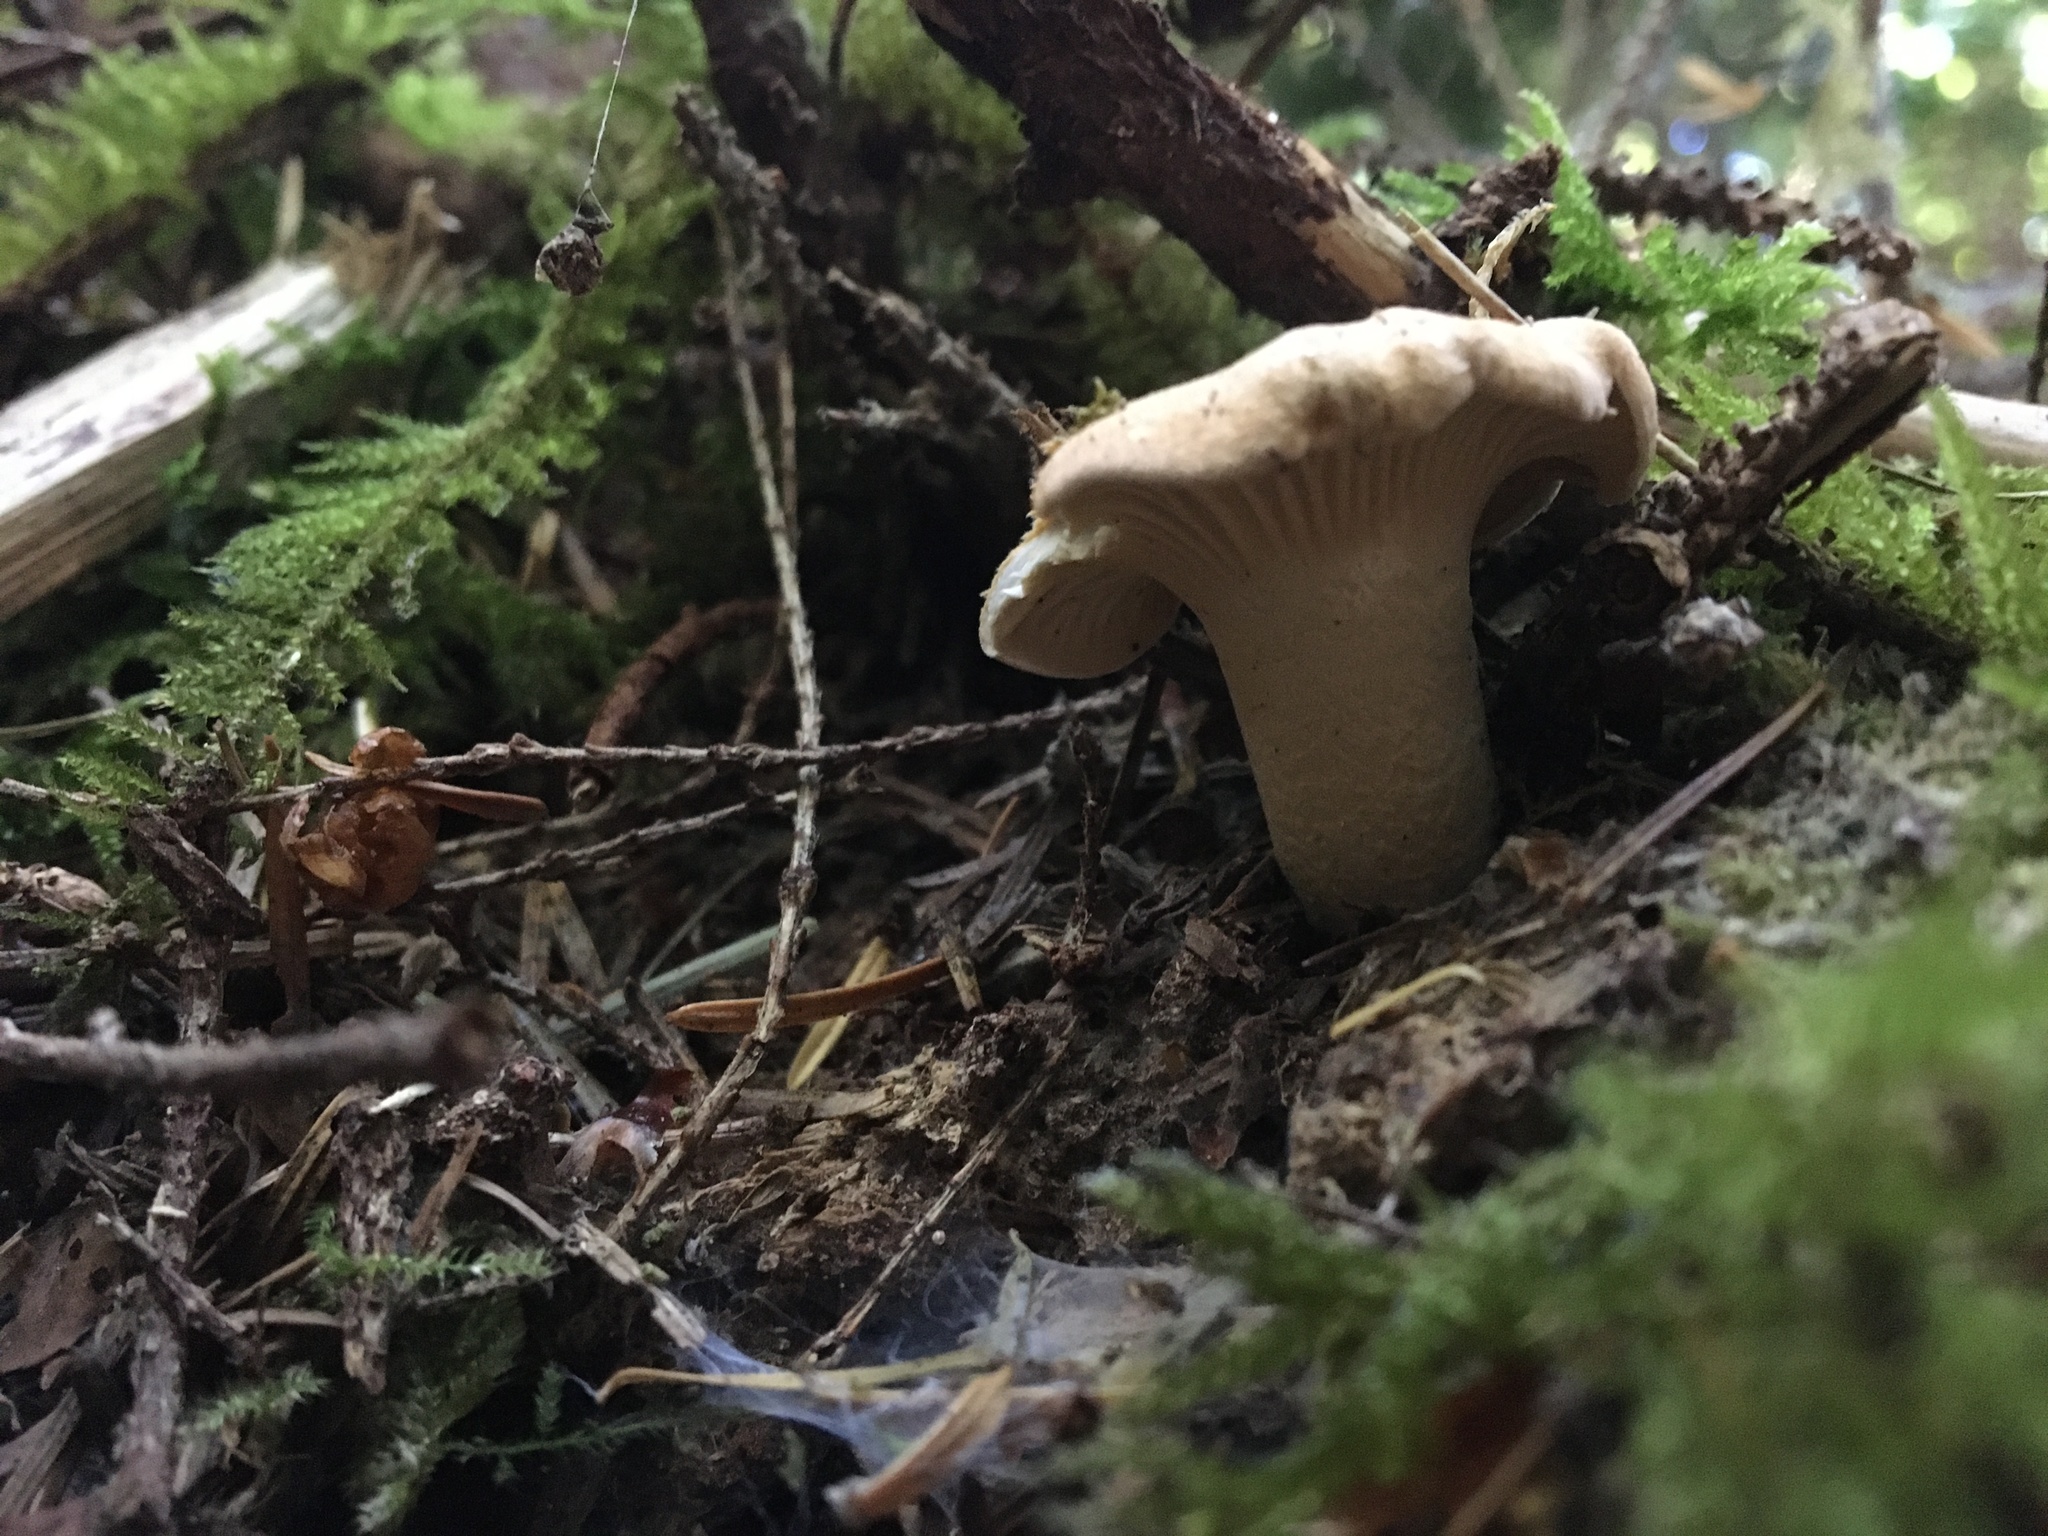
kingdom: Fungi
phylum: Basidiomycota
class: Agaricomycetes
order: Cantharellales
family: Hydnaceae
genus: Cantharellus
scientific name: Cantharellus formosus
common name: Pacific golden chanterelle
